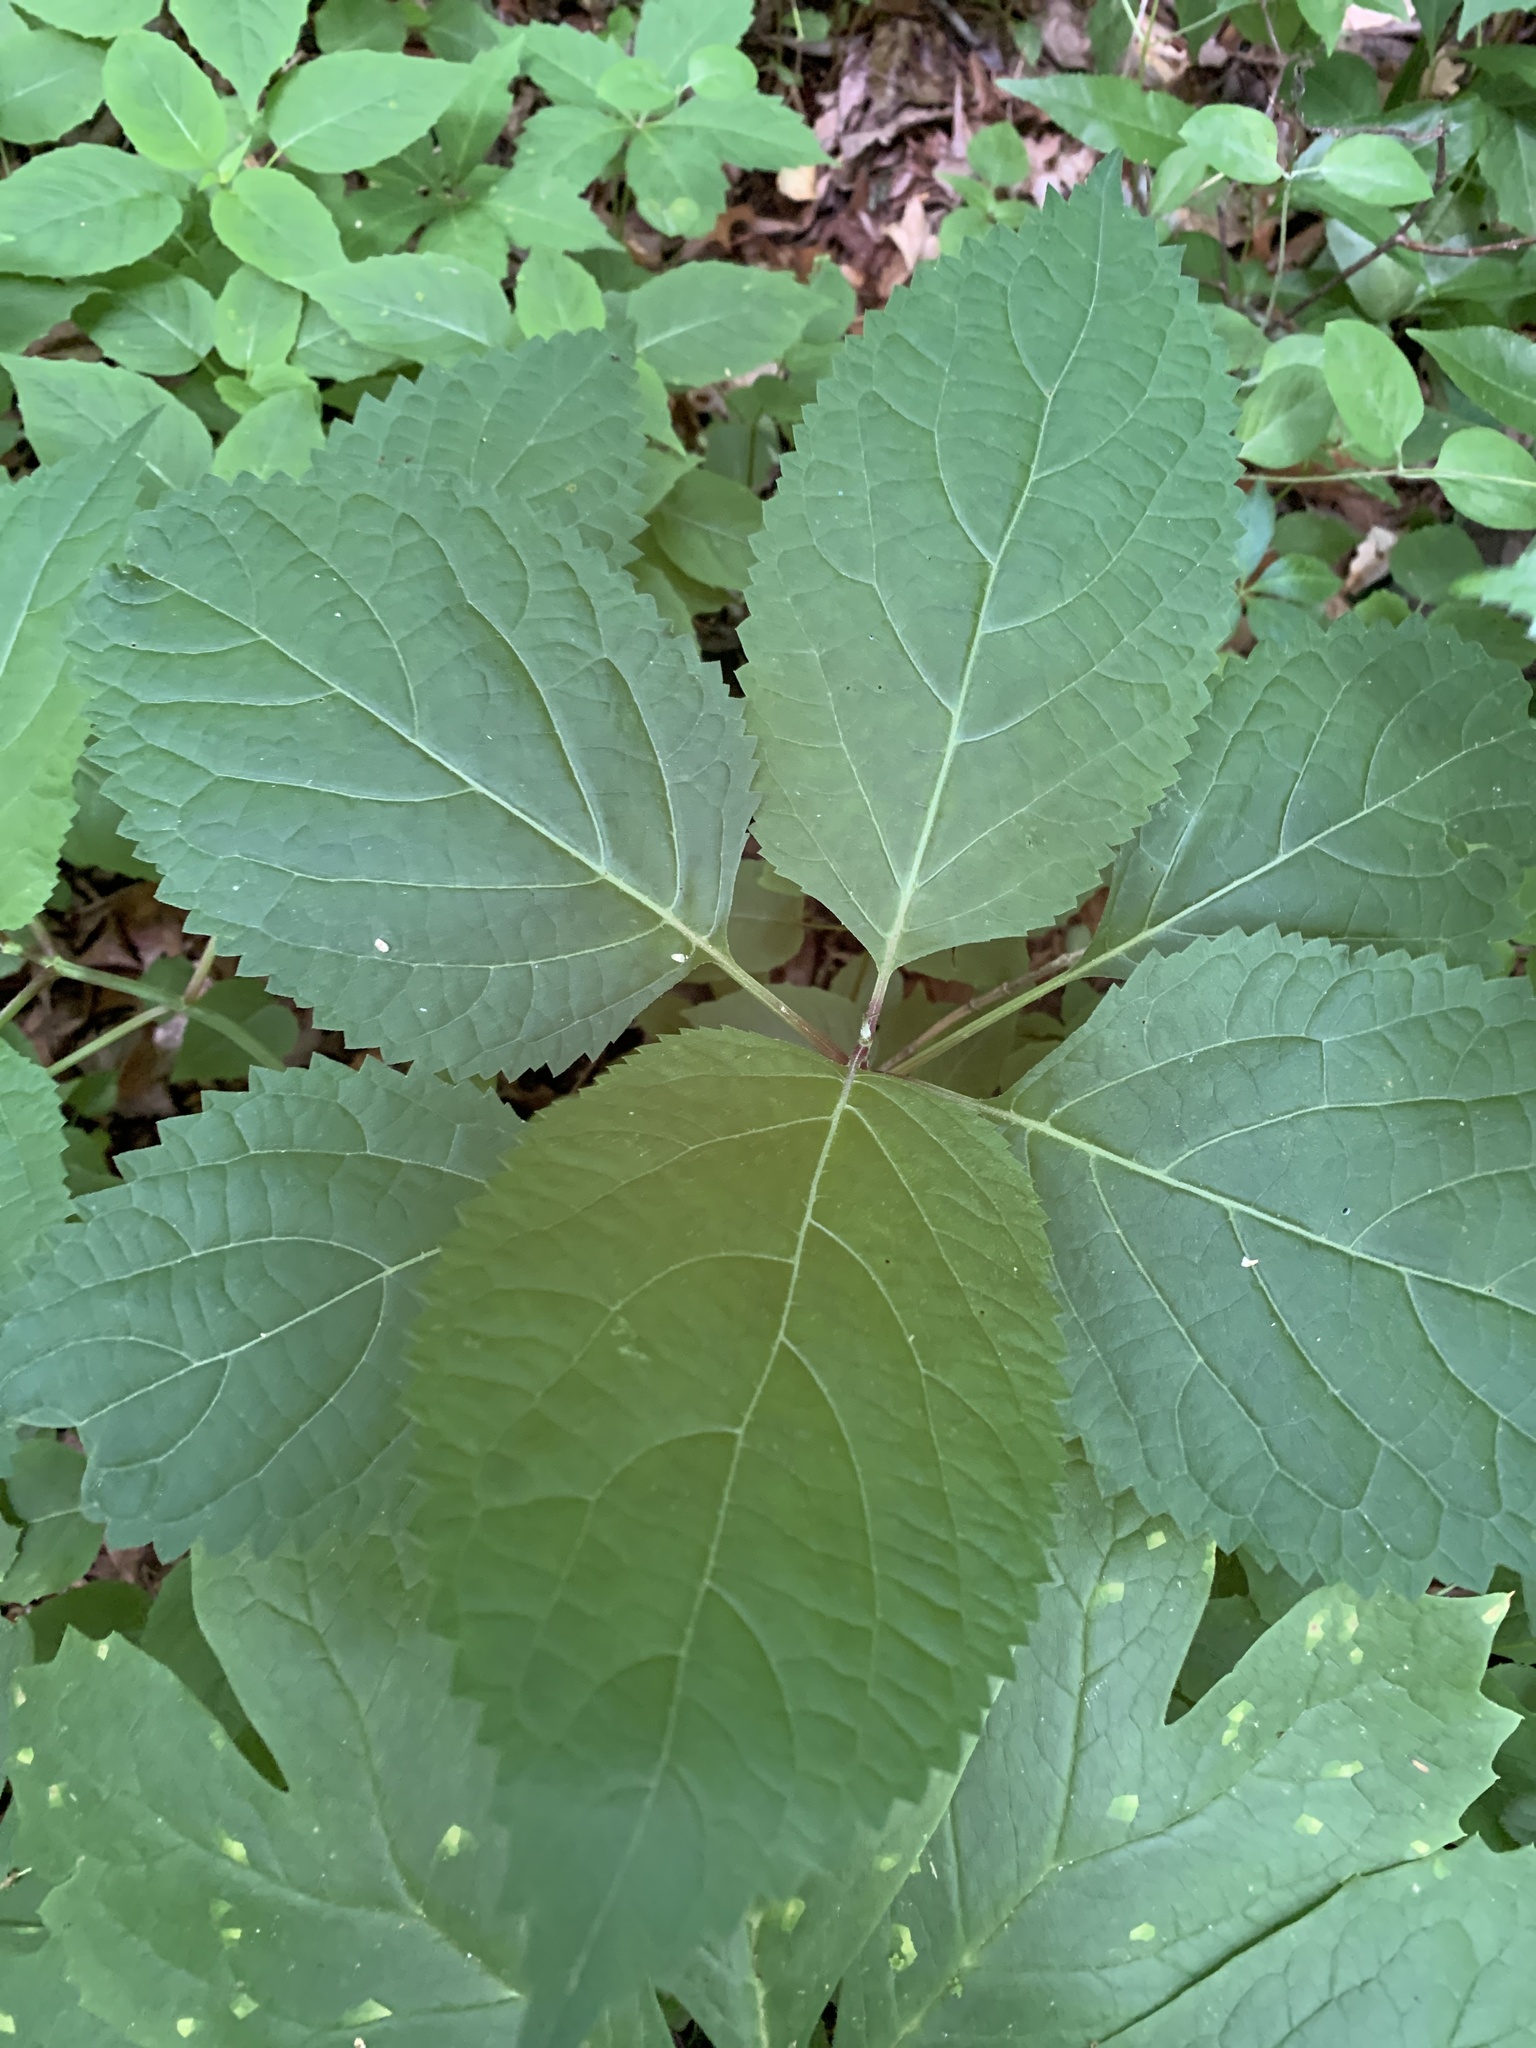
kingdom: Plantae
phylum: Tracheophyta
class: Magnoliopsida
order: Lamiales
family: Lamiaceae
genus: Collinsonia
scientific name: Collinsonia canadensis
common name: Northern horsebalm
